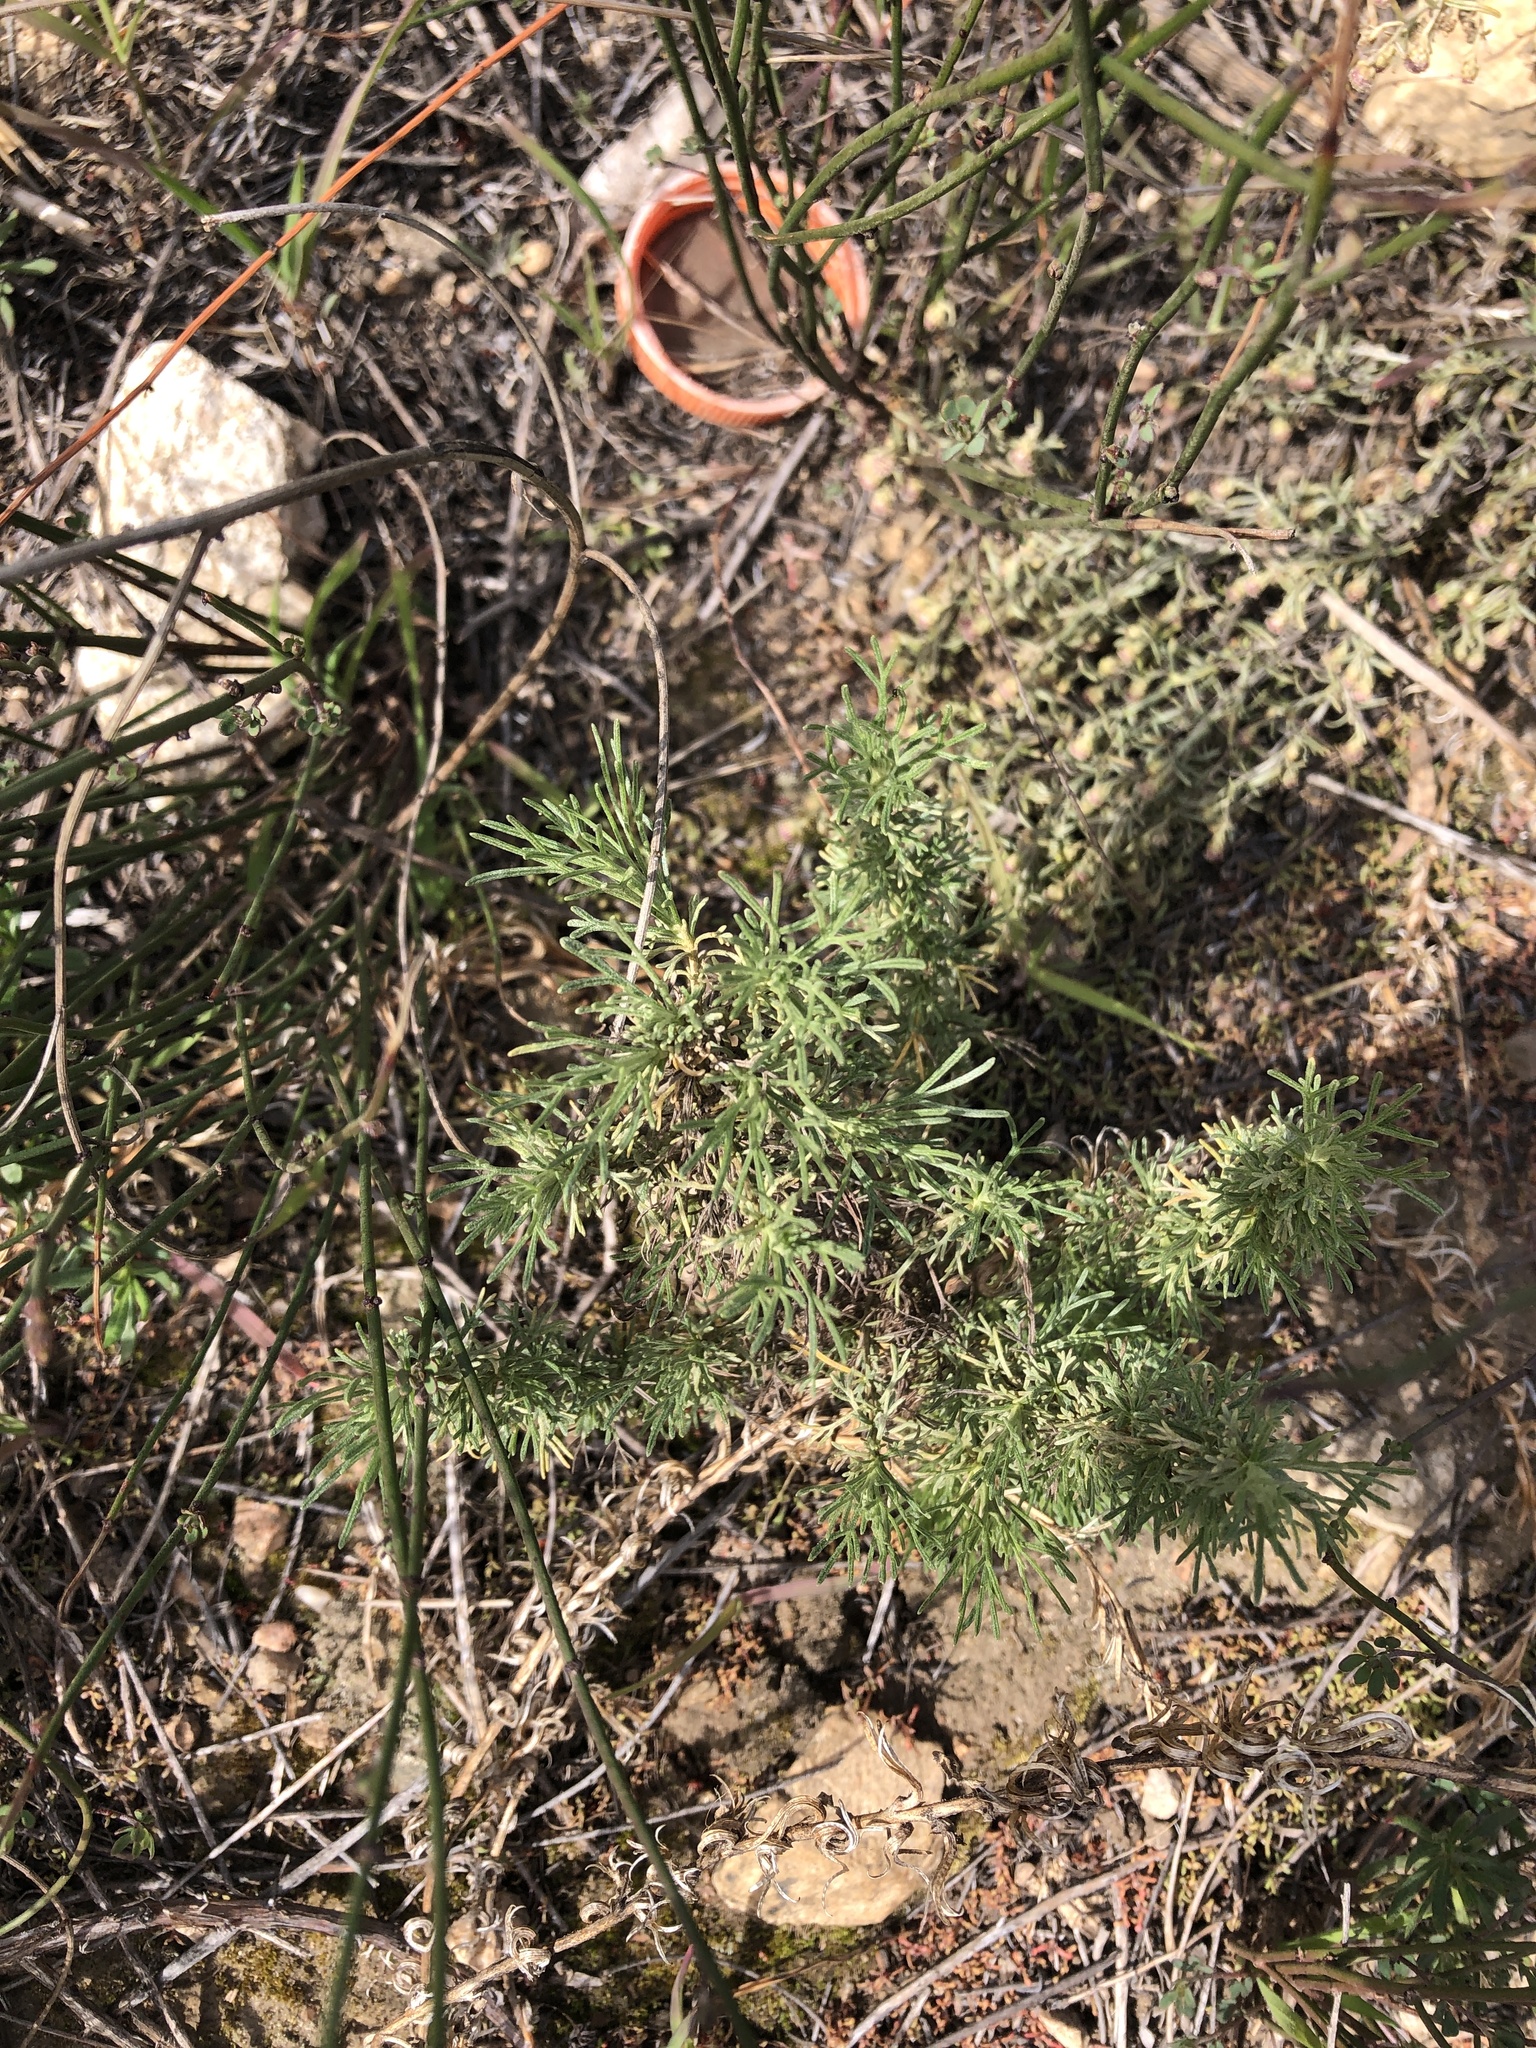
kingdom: Plantae
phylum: Tracheophyta
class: Magnoliopsida
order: Asterales
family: Asteraceae
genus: Artemisia
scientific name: Artemisia californica
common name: California sagebrush
